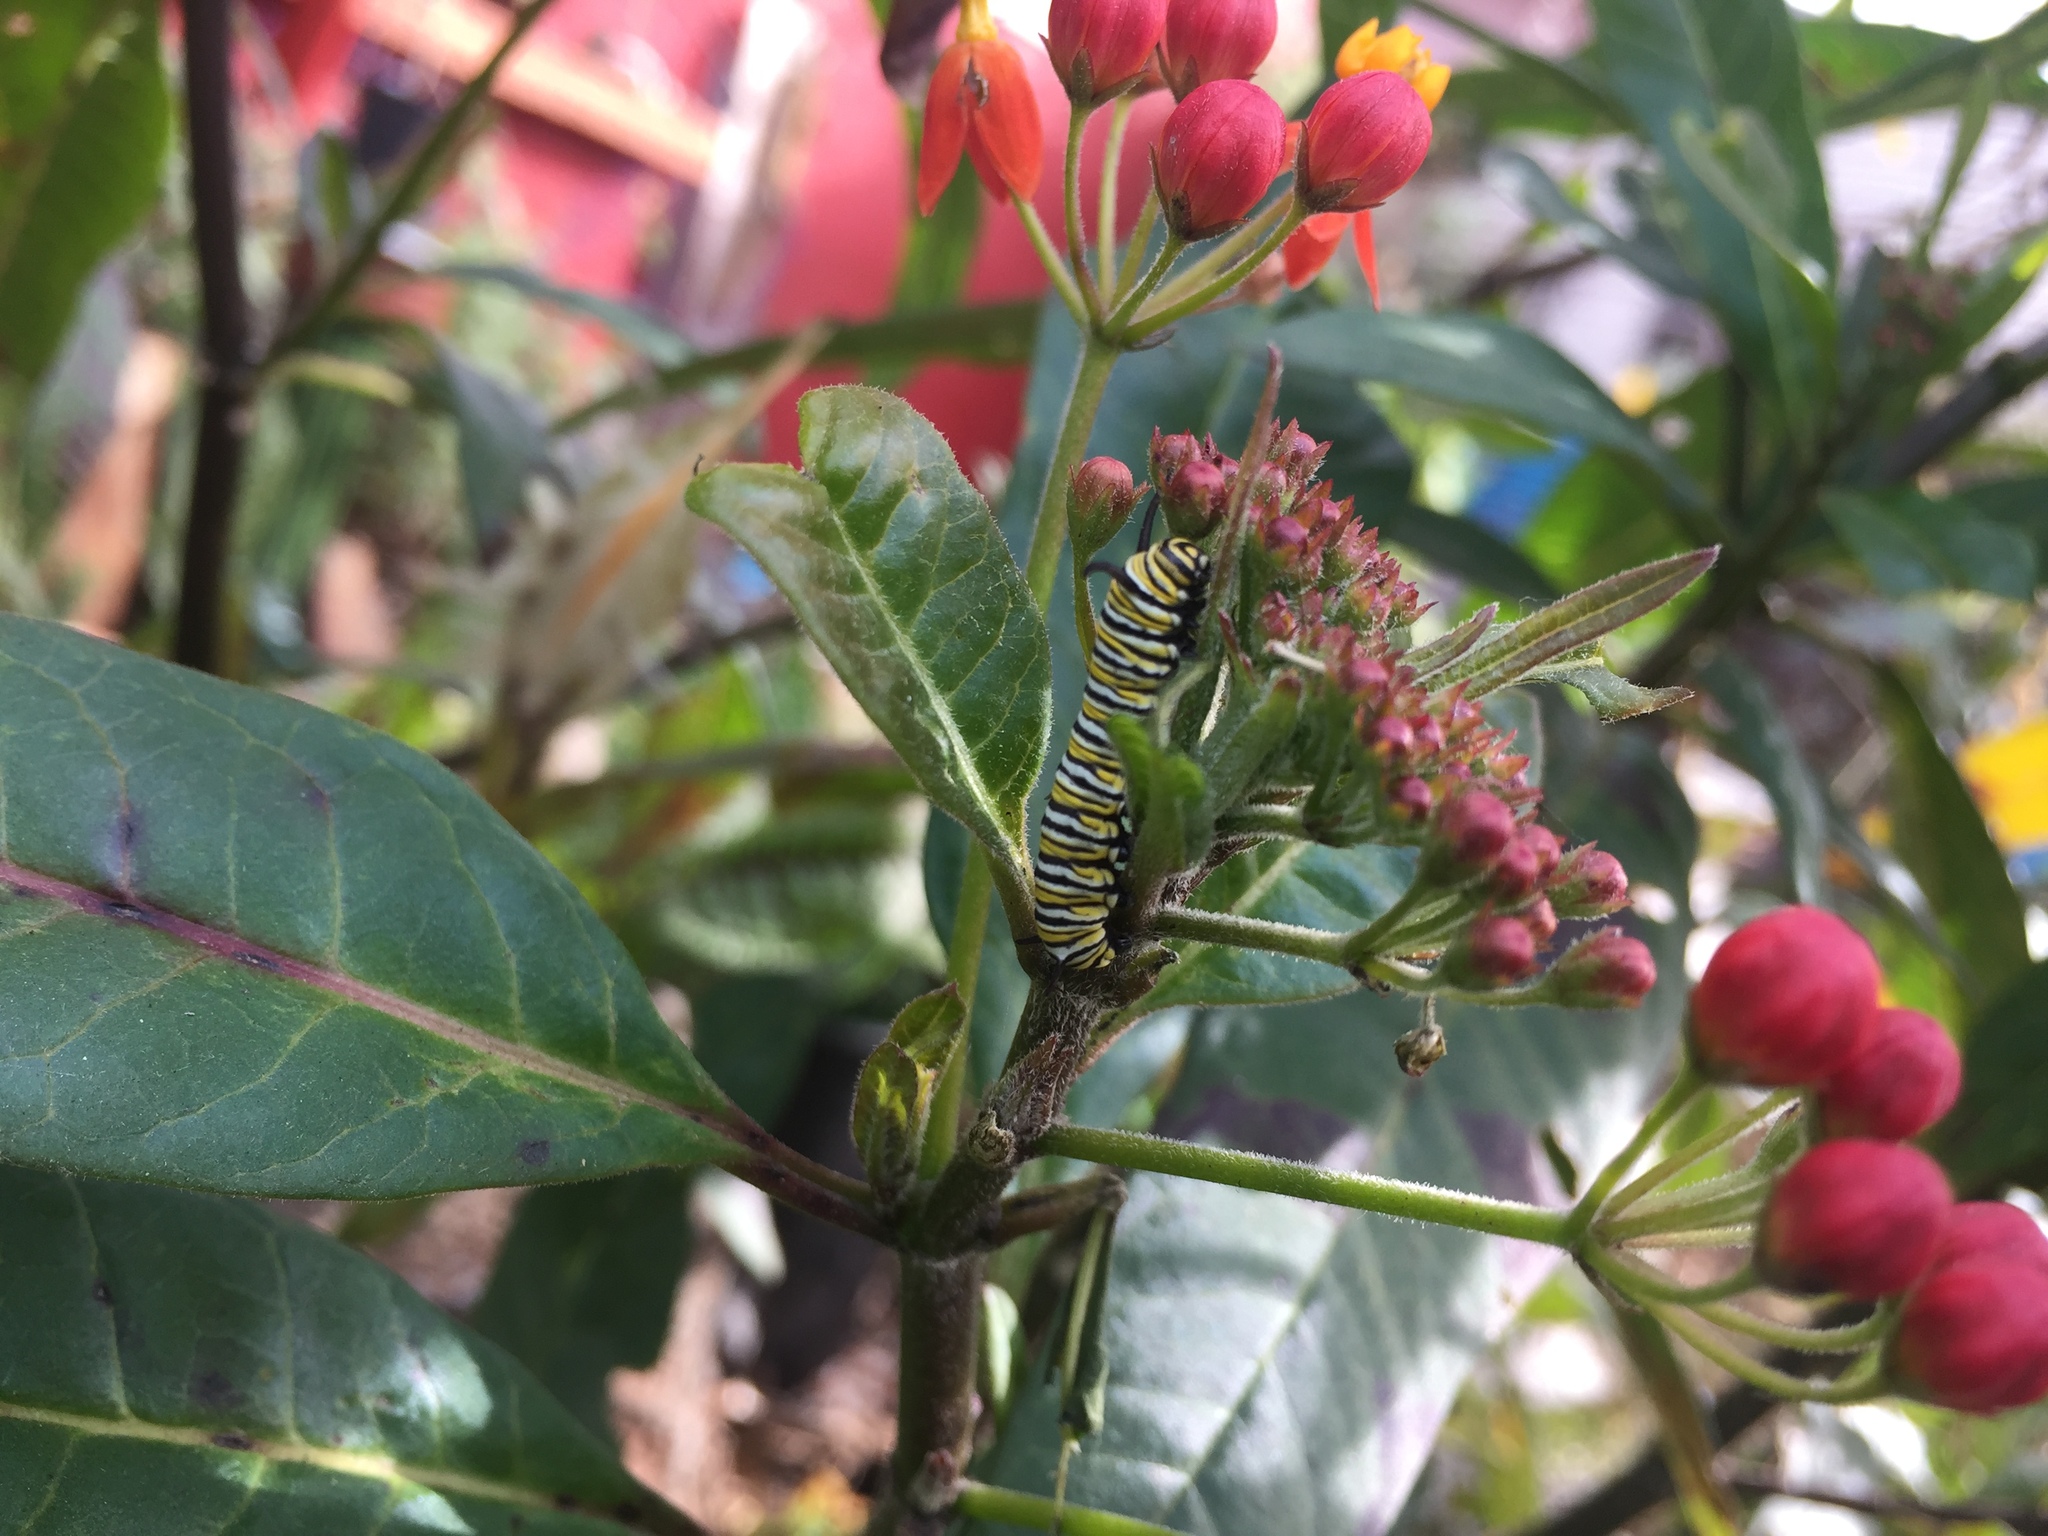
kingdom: Animalia
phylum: Arthropoda
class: Insecta
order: Lepidoptera
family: Nymphalidae
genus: Danaus
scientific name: Danaus plexippus
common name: Monarch
